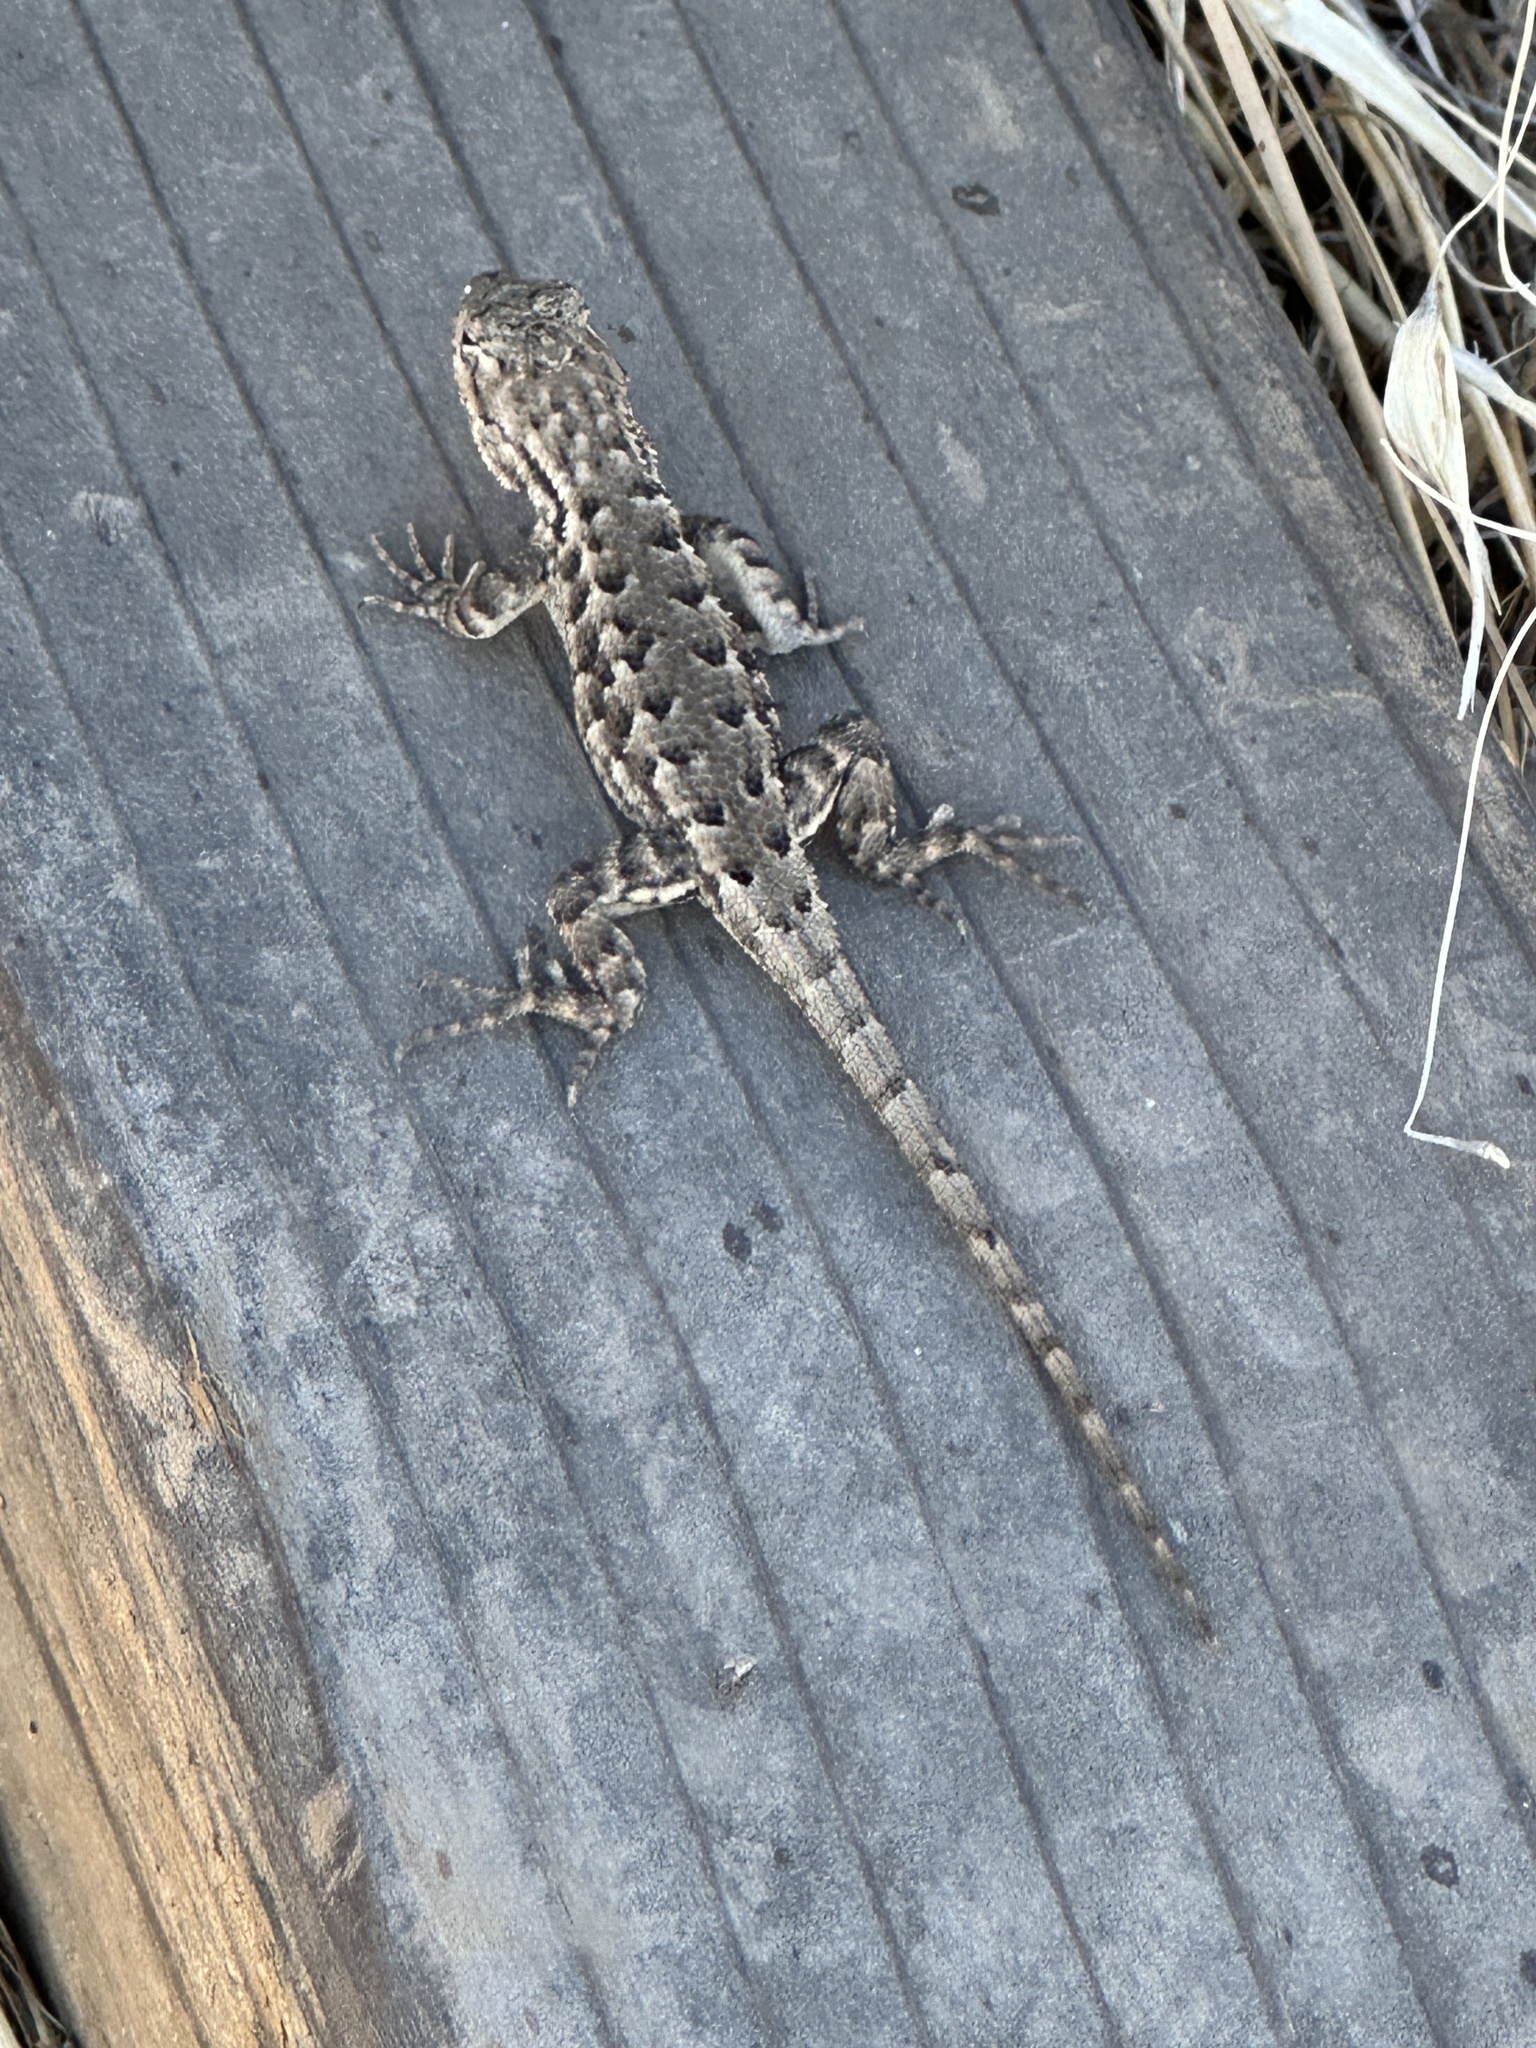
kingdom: Animalia
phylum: Chordata
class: Squamata
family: Phrynosomatidae
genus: Sceloporus
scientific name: Sceloporus occidentalis
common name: Western fence lizard
